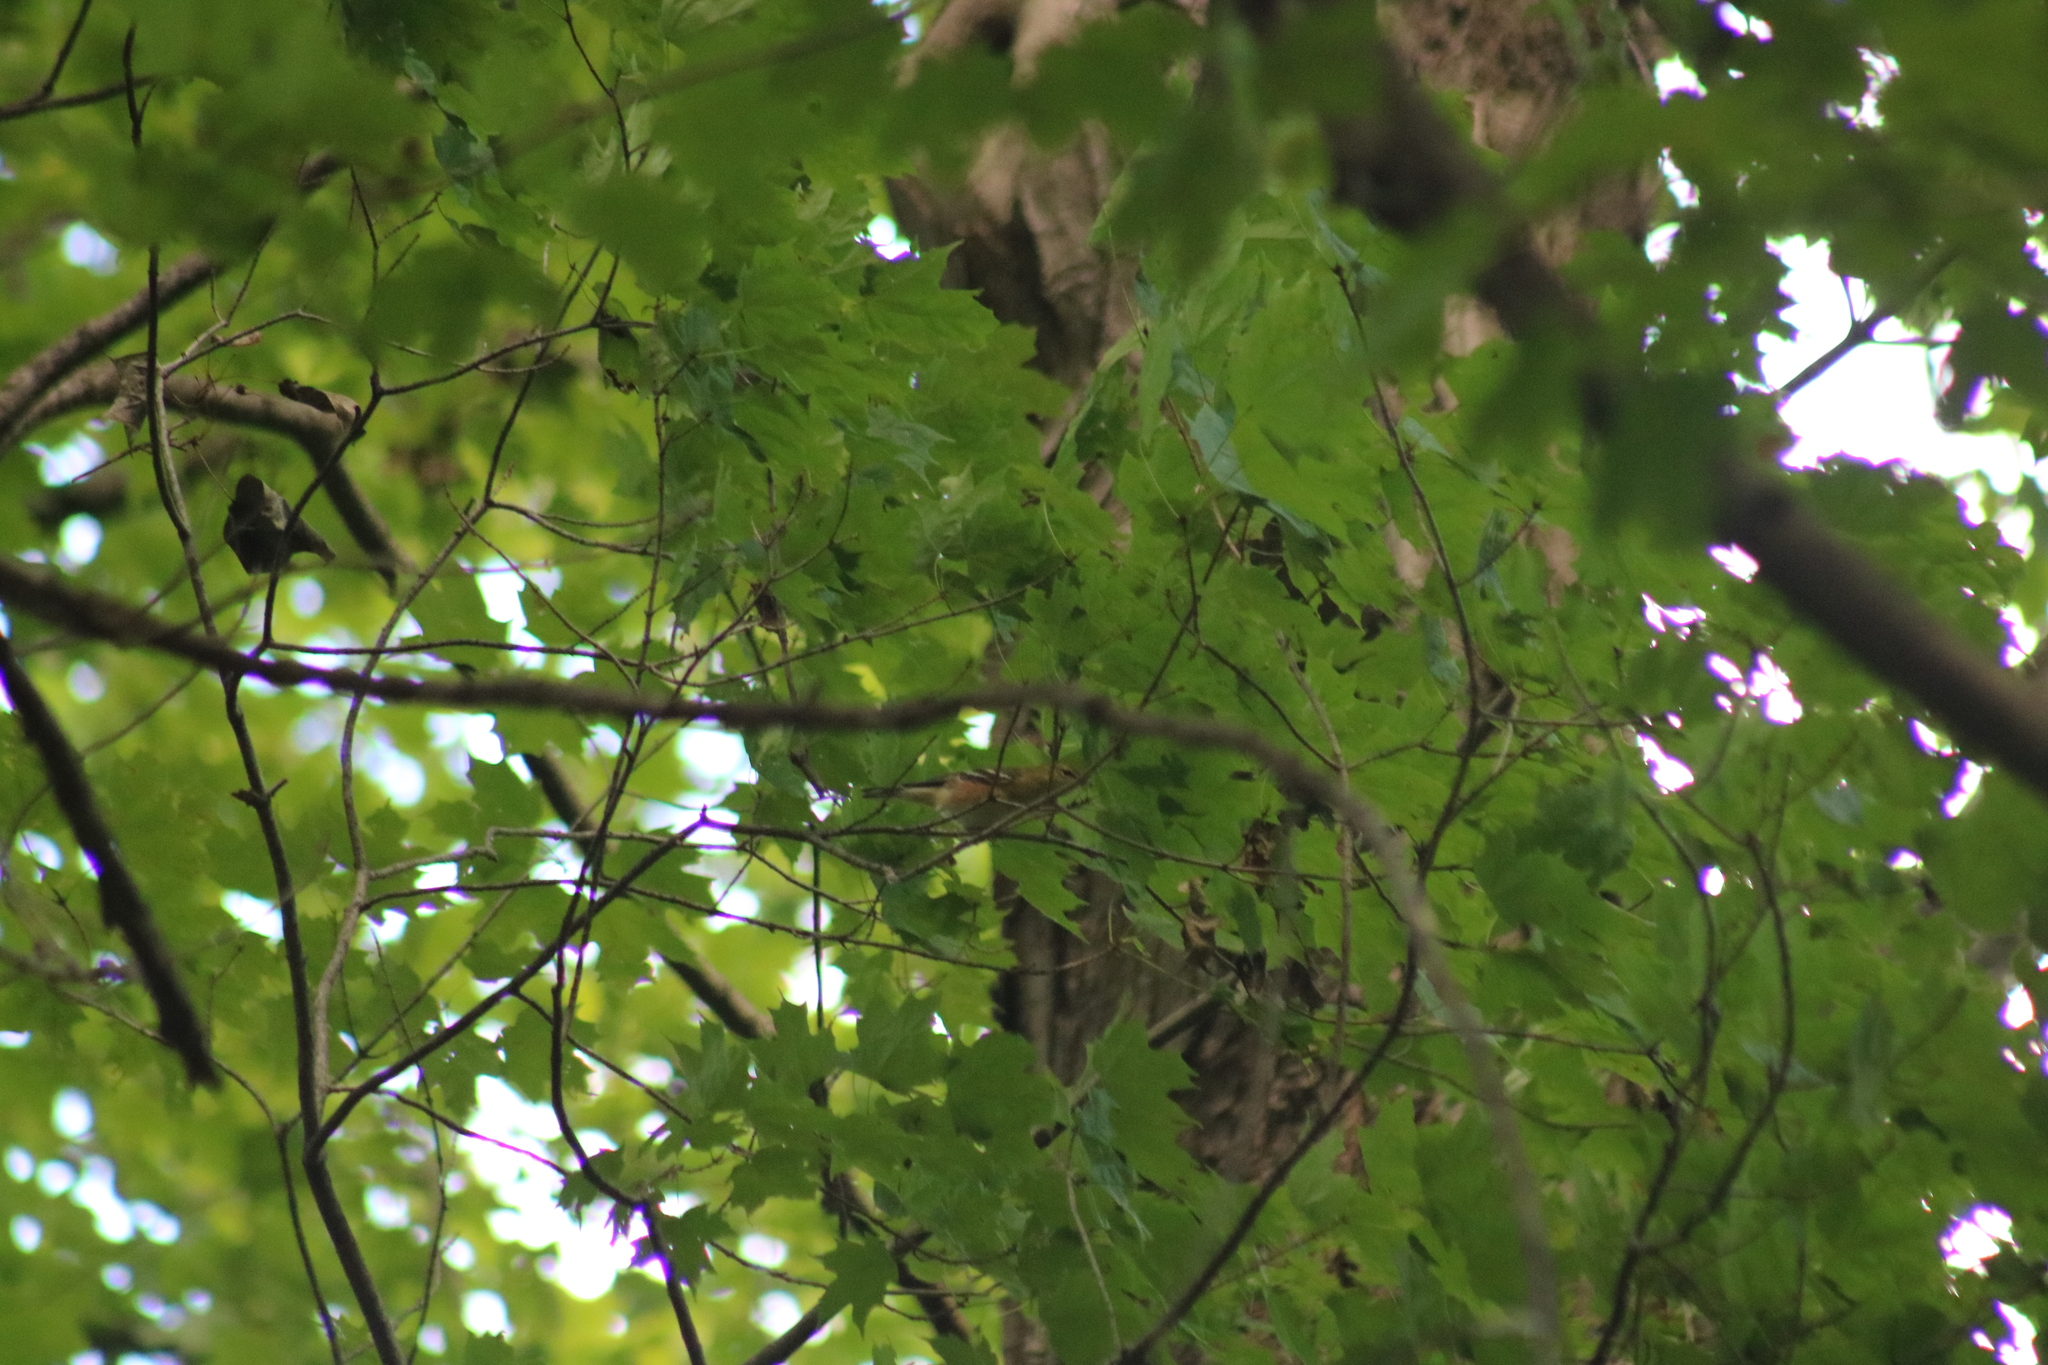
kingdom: Animalia
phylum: Chordata
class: Aves
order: Passeriformes
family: Parulidae
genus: Setophaga
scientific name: Setophaga castanea
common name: Bay-breasted warbler
